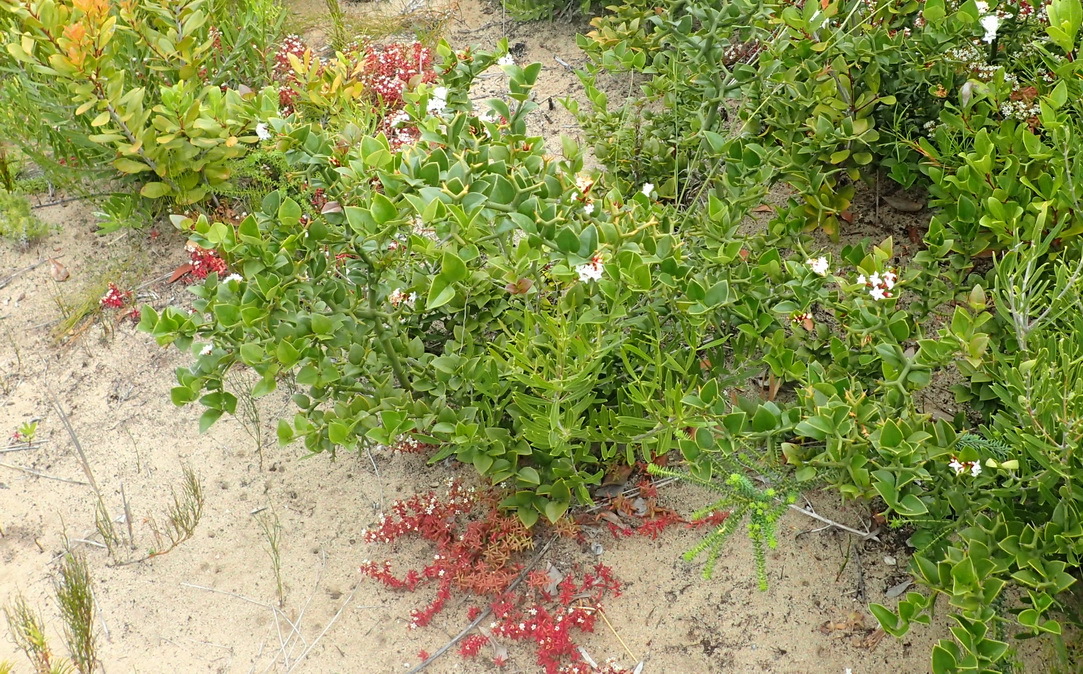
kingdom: Plantae
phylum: Tracheophyta
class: Magnoliopsida
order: Gentianales
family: Apocynaceae
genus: Carissa
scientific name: Carissa bispinosa
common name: Forest num-num
